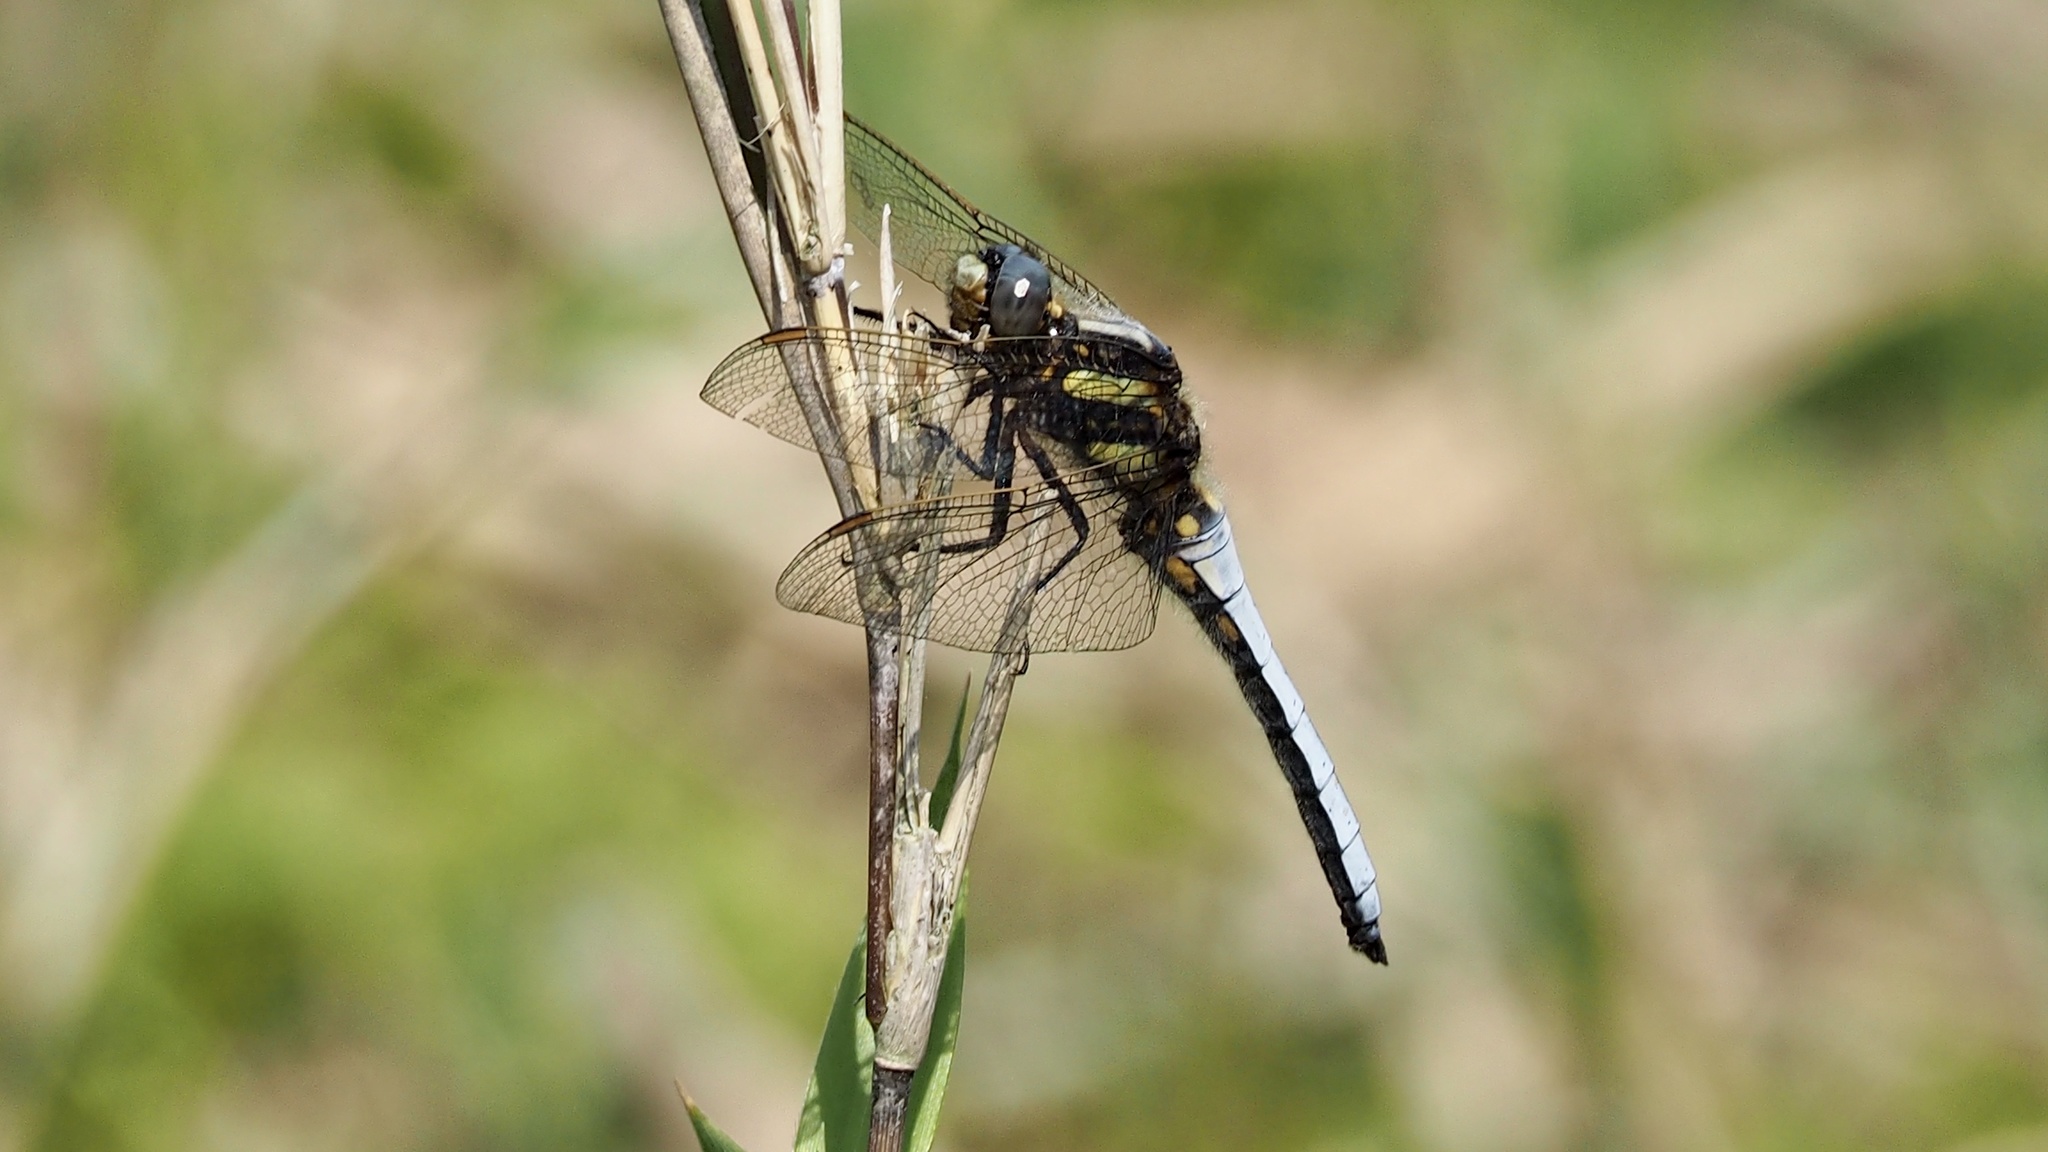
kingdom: Animalia
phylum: Arthropoda
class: Insecta
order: Odonata
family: Libellulidae
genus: Orthetrum
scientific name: Orthetrum japonicum
